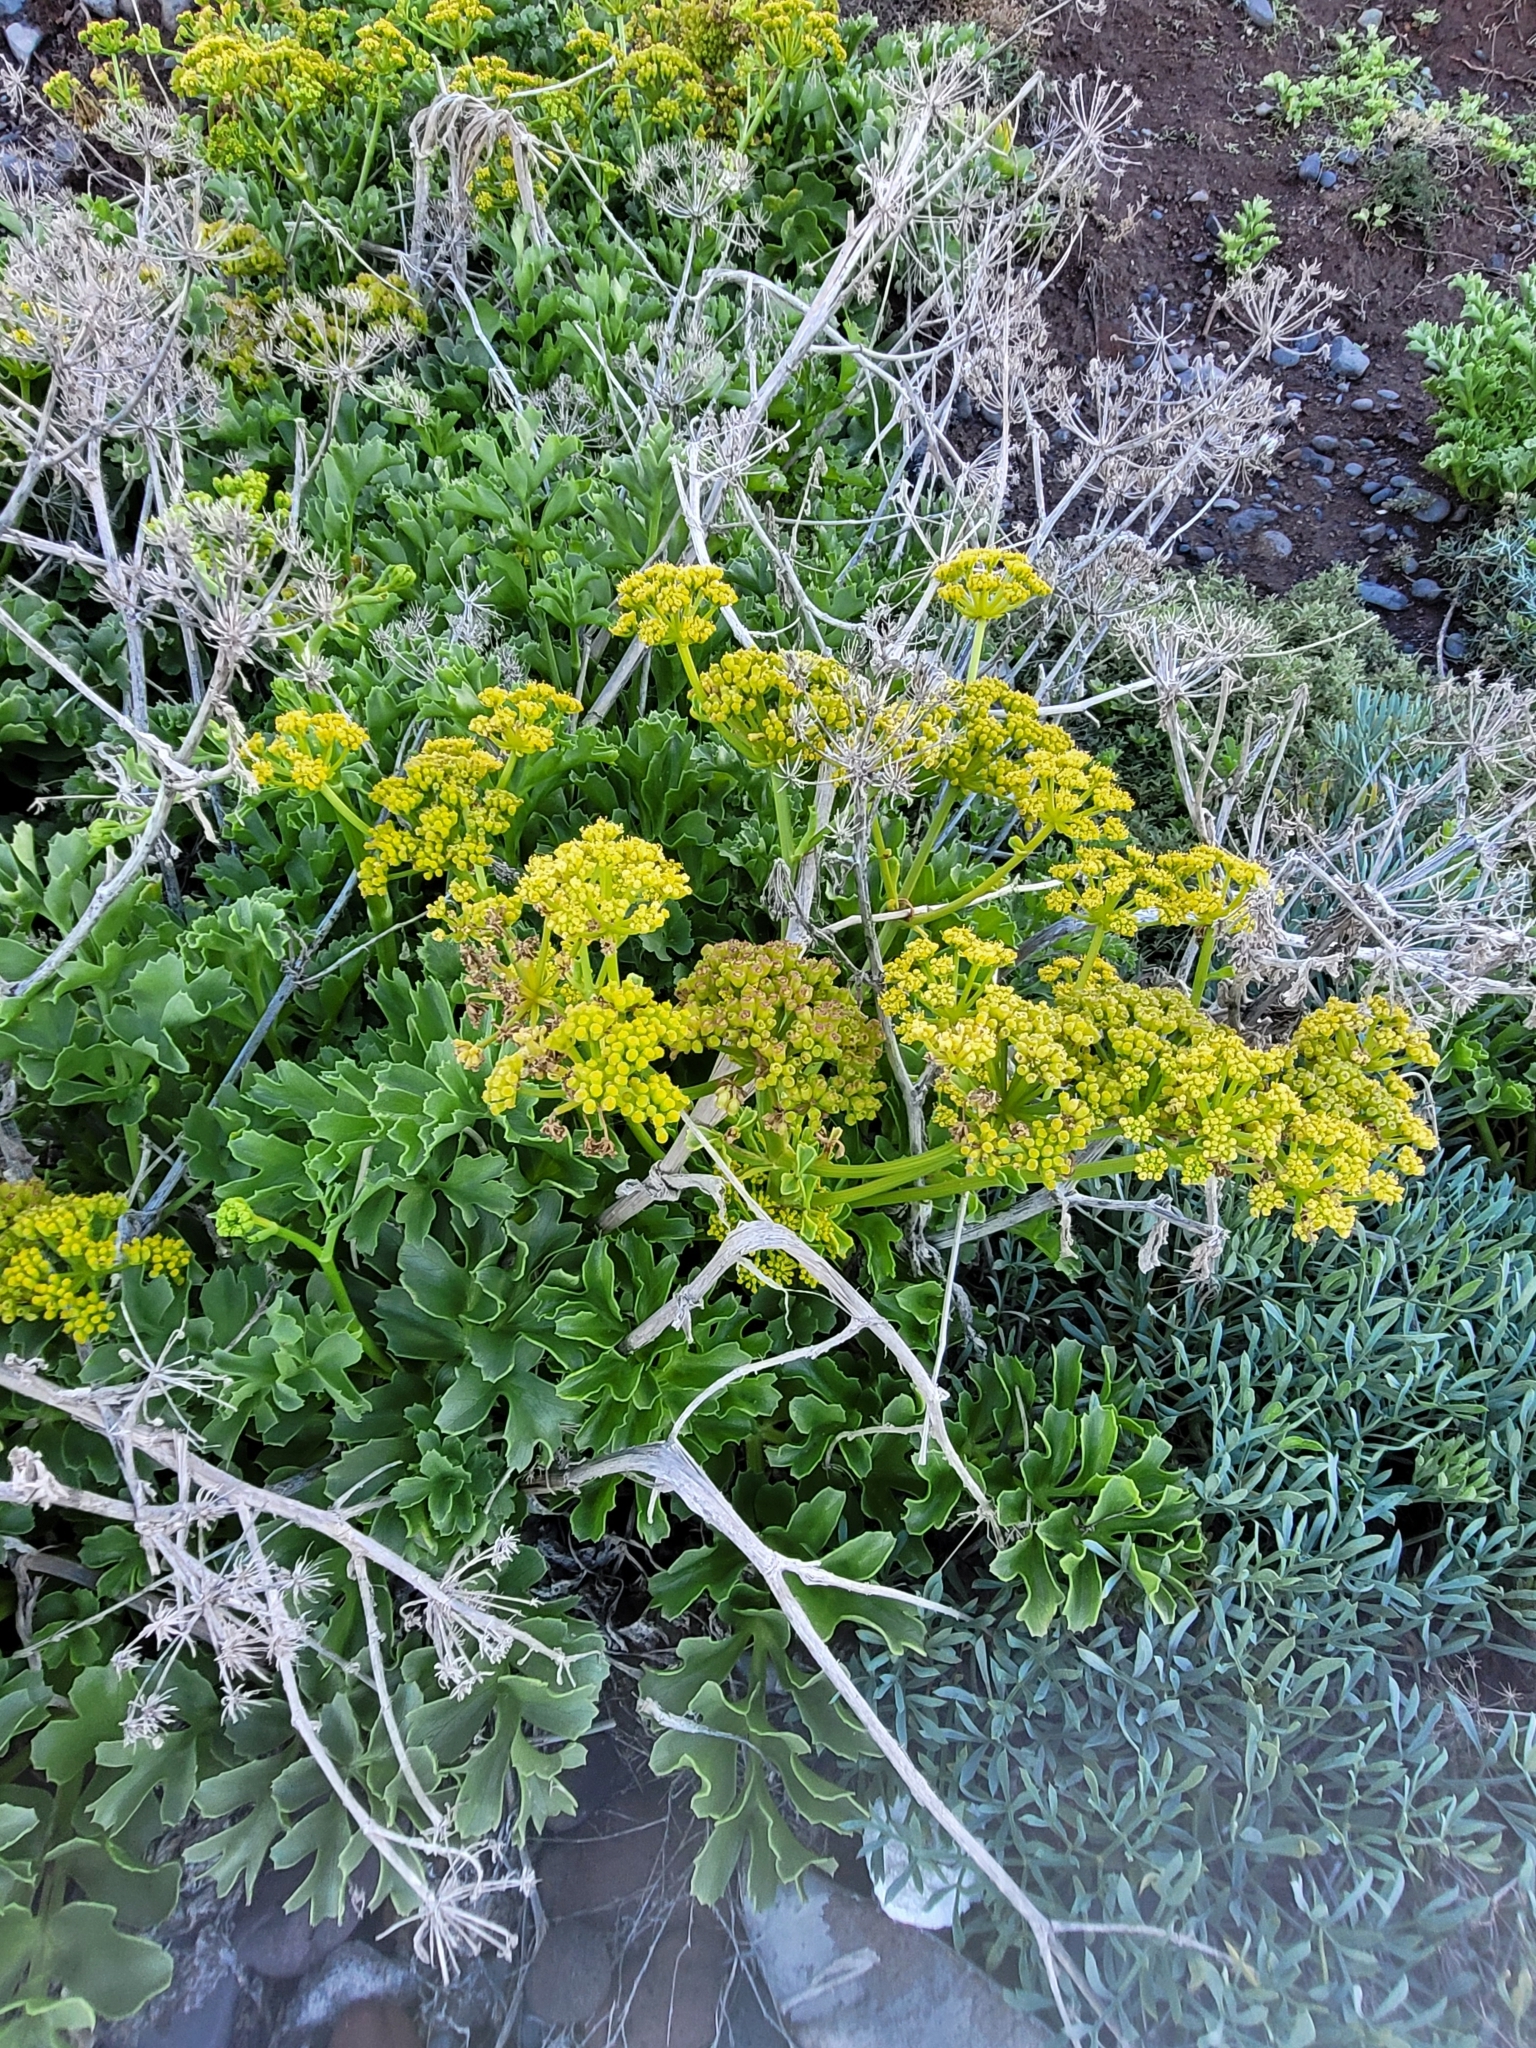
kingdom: Plantae
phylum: Tracheophyta
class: Magnoliopsida
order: Apiales
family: Apiaceae
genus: Astydamia
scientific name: Astydamia latifolia
